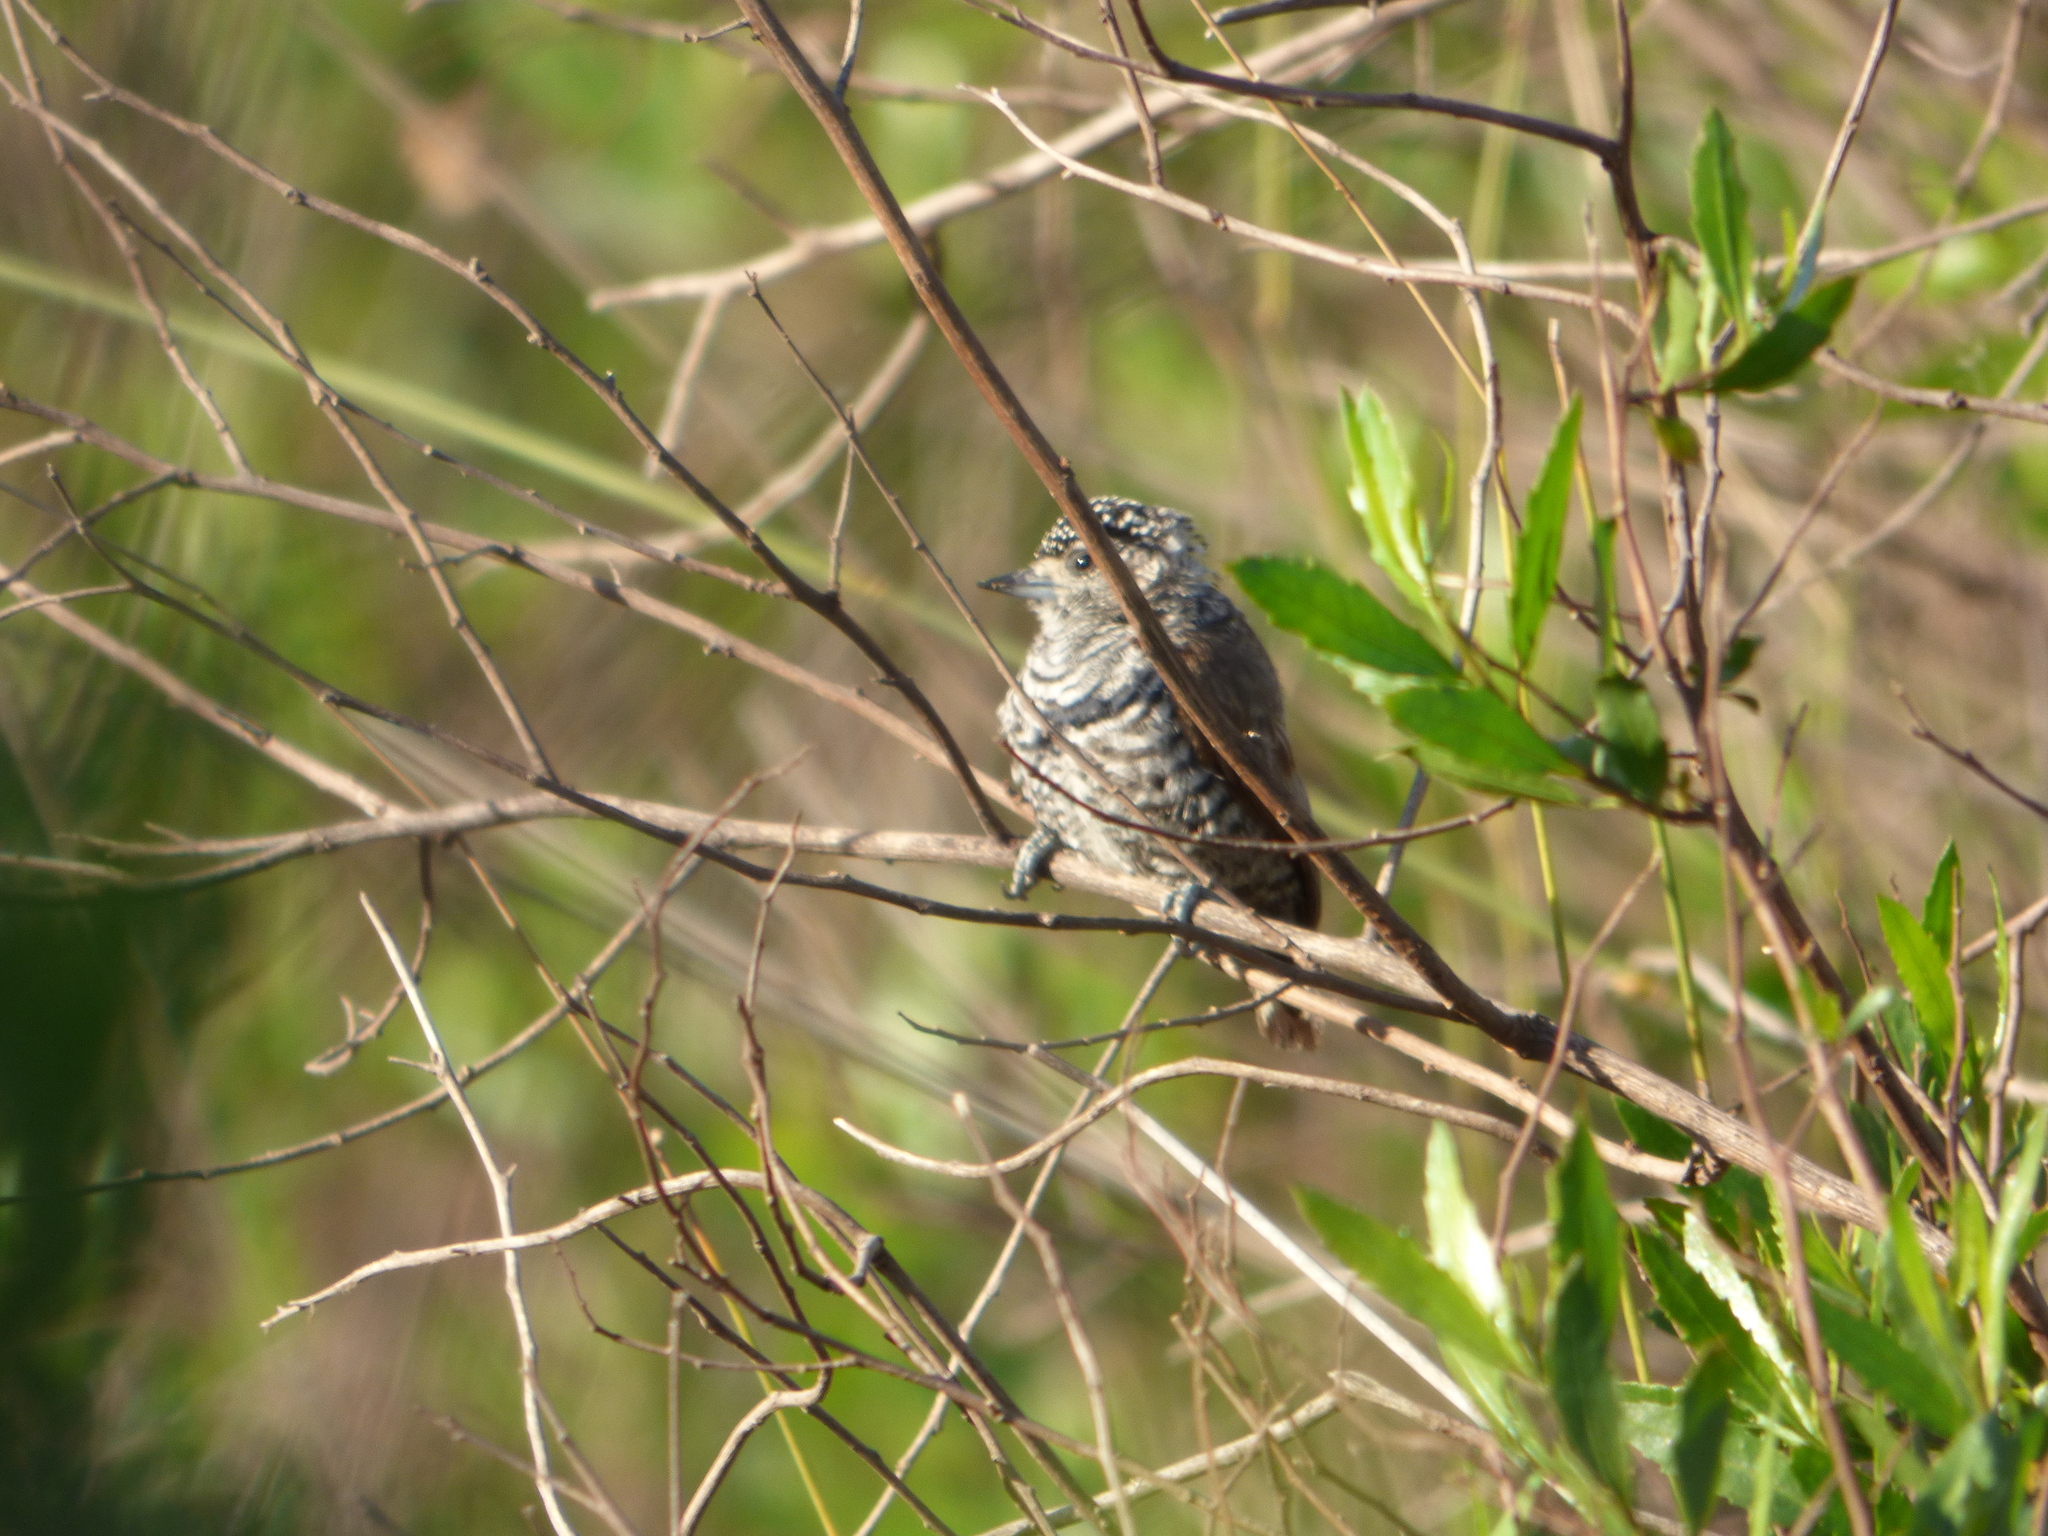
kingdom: Animalia
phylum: Chordata
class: Aves
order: Piciformes
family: Picidae
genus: Picumnus
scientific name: Picumnus cirratus
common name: White-barred piculet
